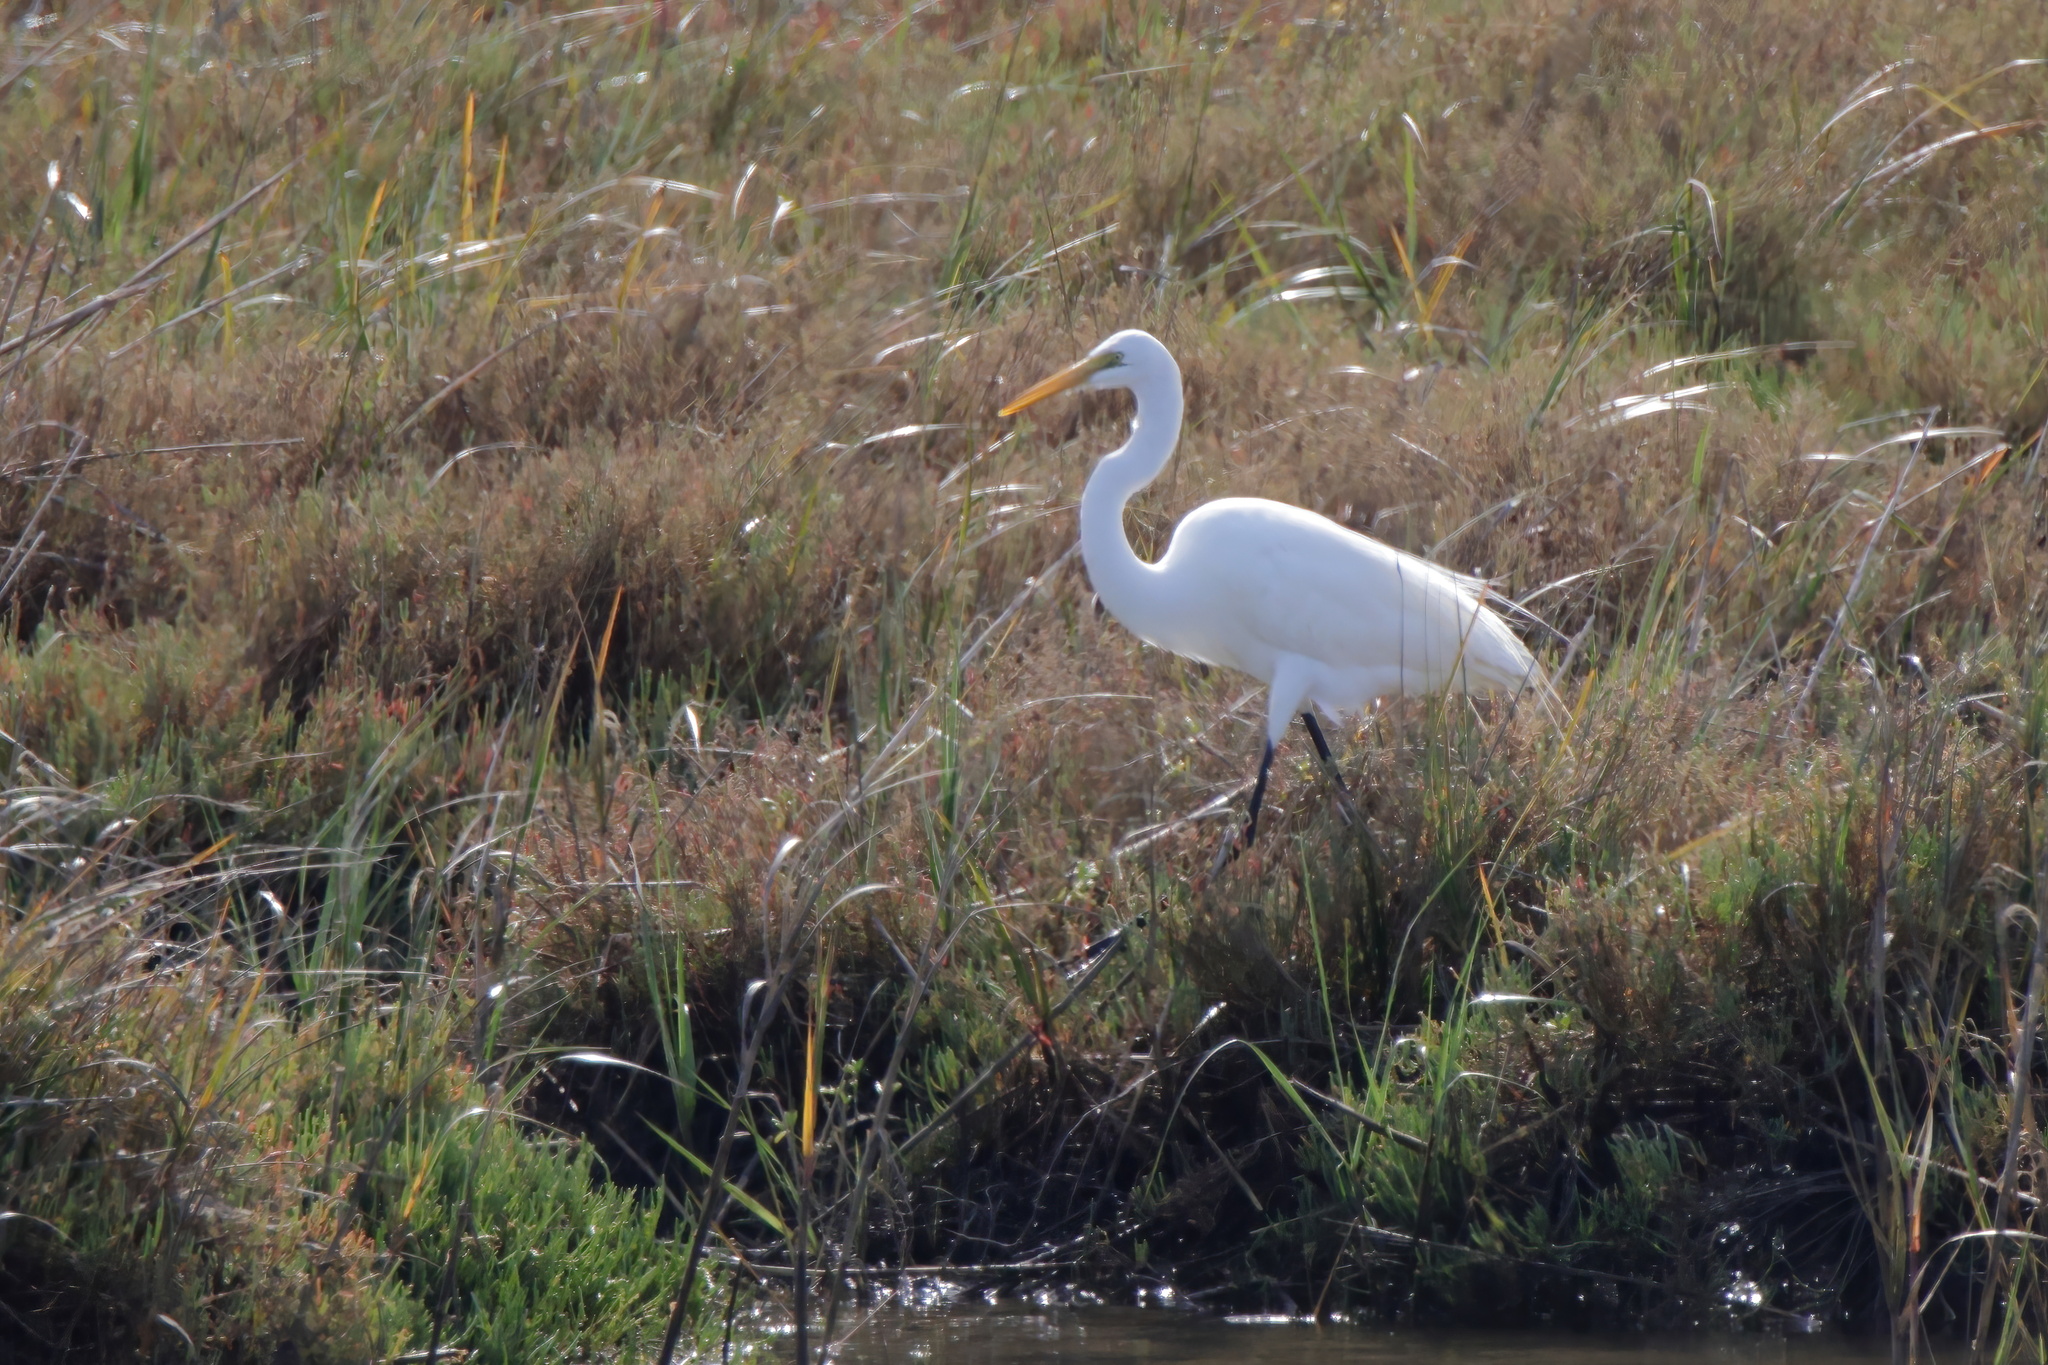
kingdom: Animalia
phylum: Chordata
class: Aves
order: Pelecaniformes
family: Ardeidae
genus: Ardea
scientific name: Ardea alba
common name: Great egret
